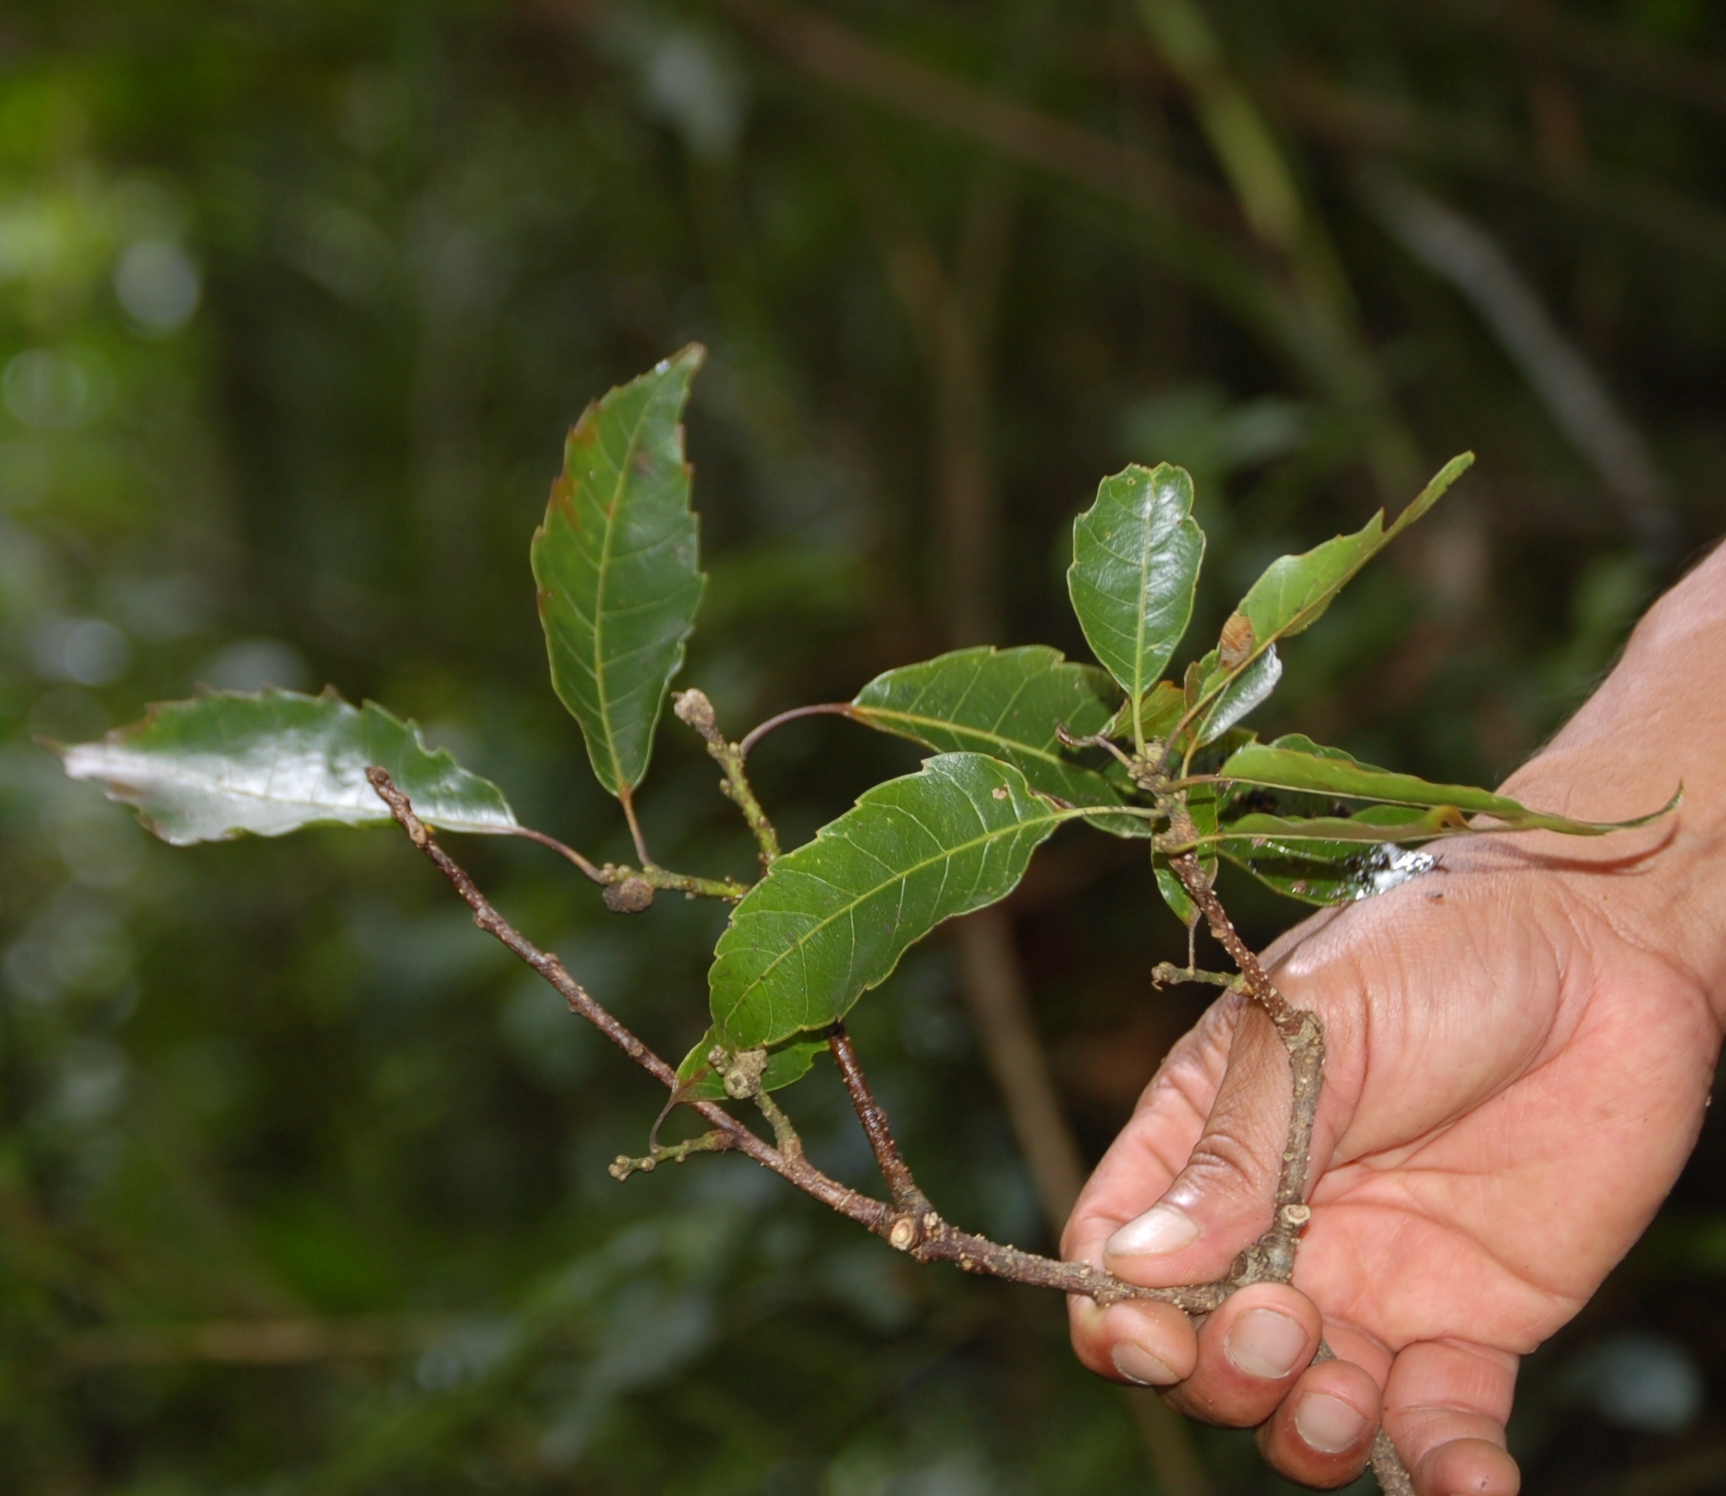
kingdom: Plantae
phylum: Tracheophyta
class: Magnoliopsida
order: Fagales
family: Fagaceae
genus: Quercus
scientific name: Quercus corrugata
